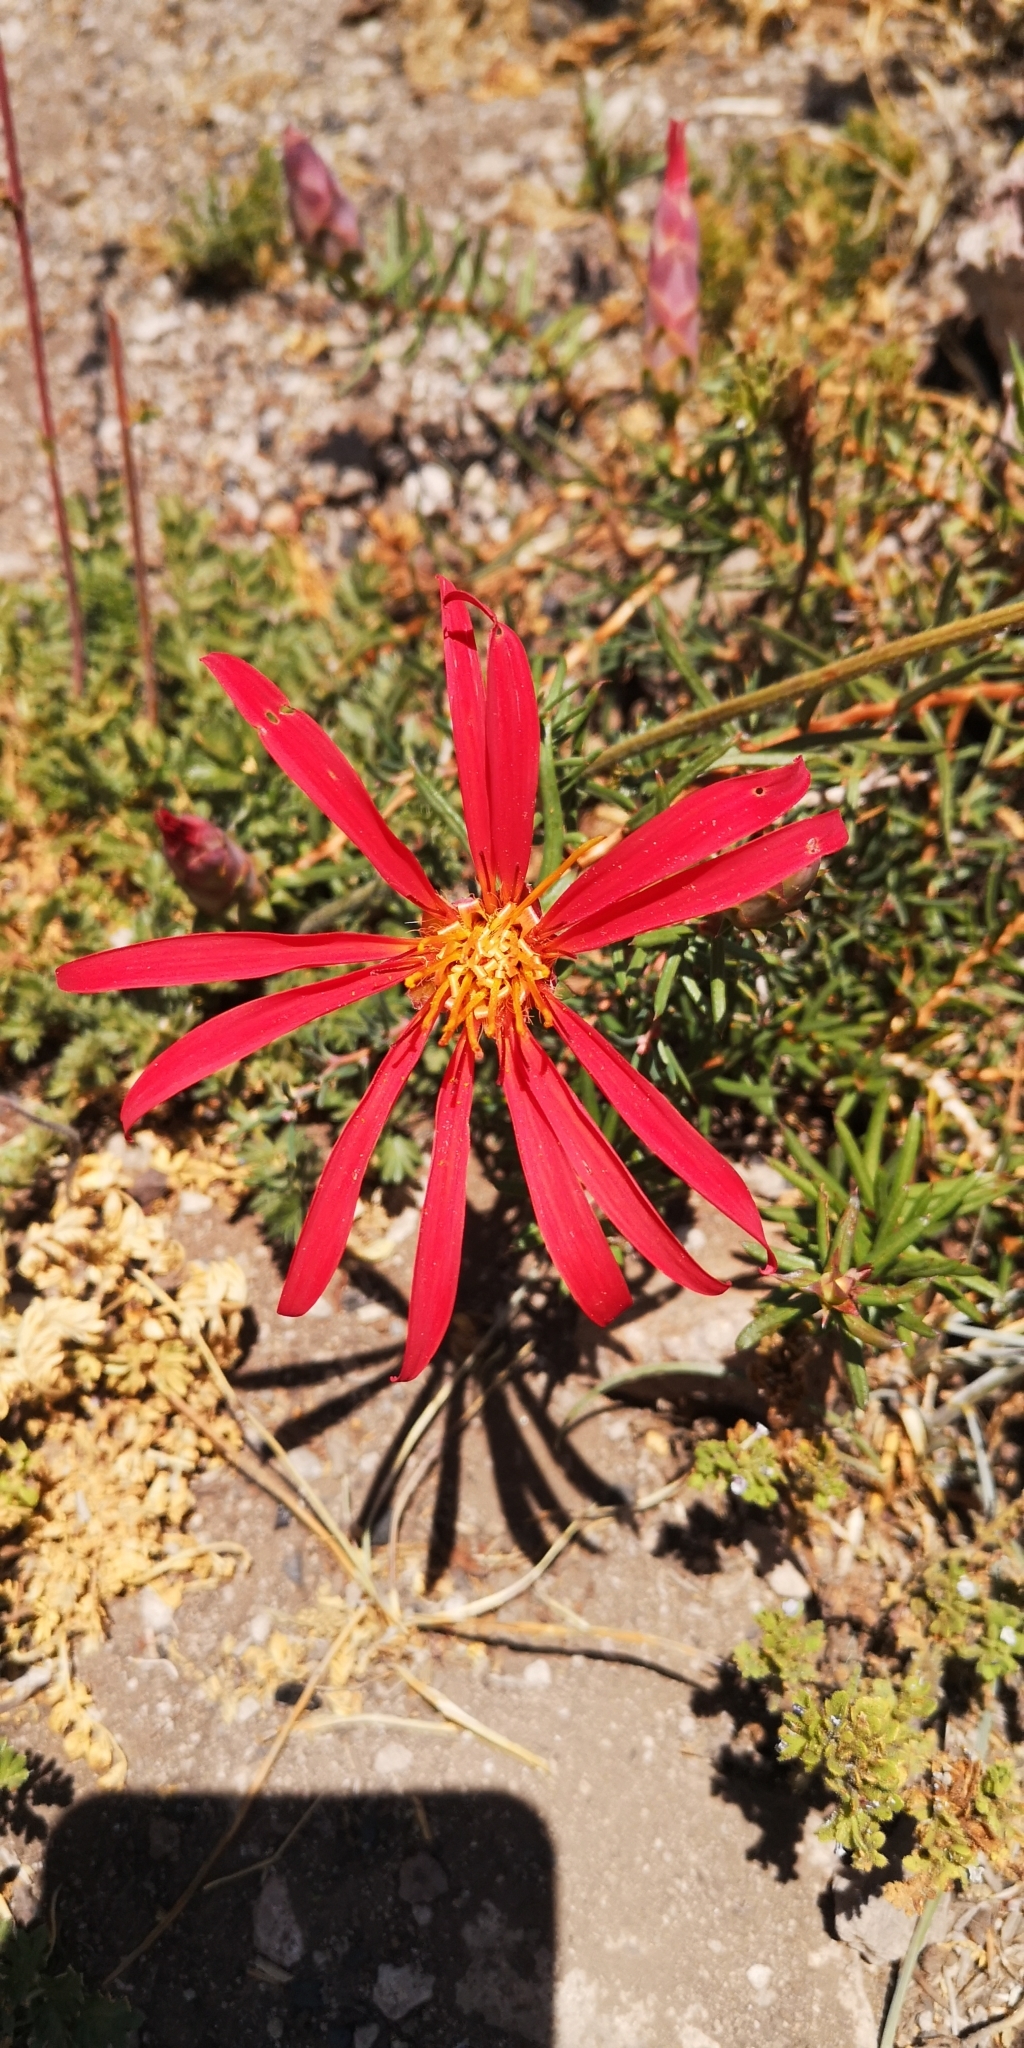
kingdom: Plantae
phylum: Tracheophyta
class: Magnoliopsida
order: Asterales
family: Asteraceae
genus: Mutisia
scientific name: Mutisia subulata
